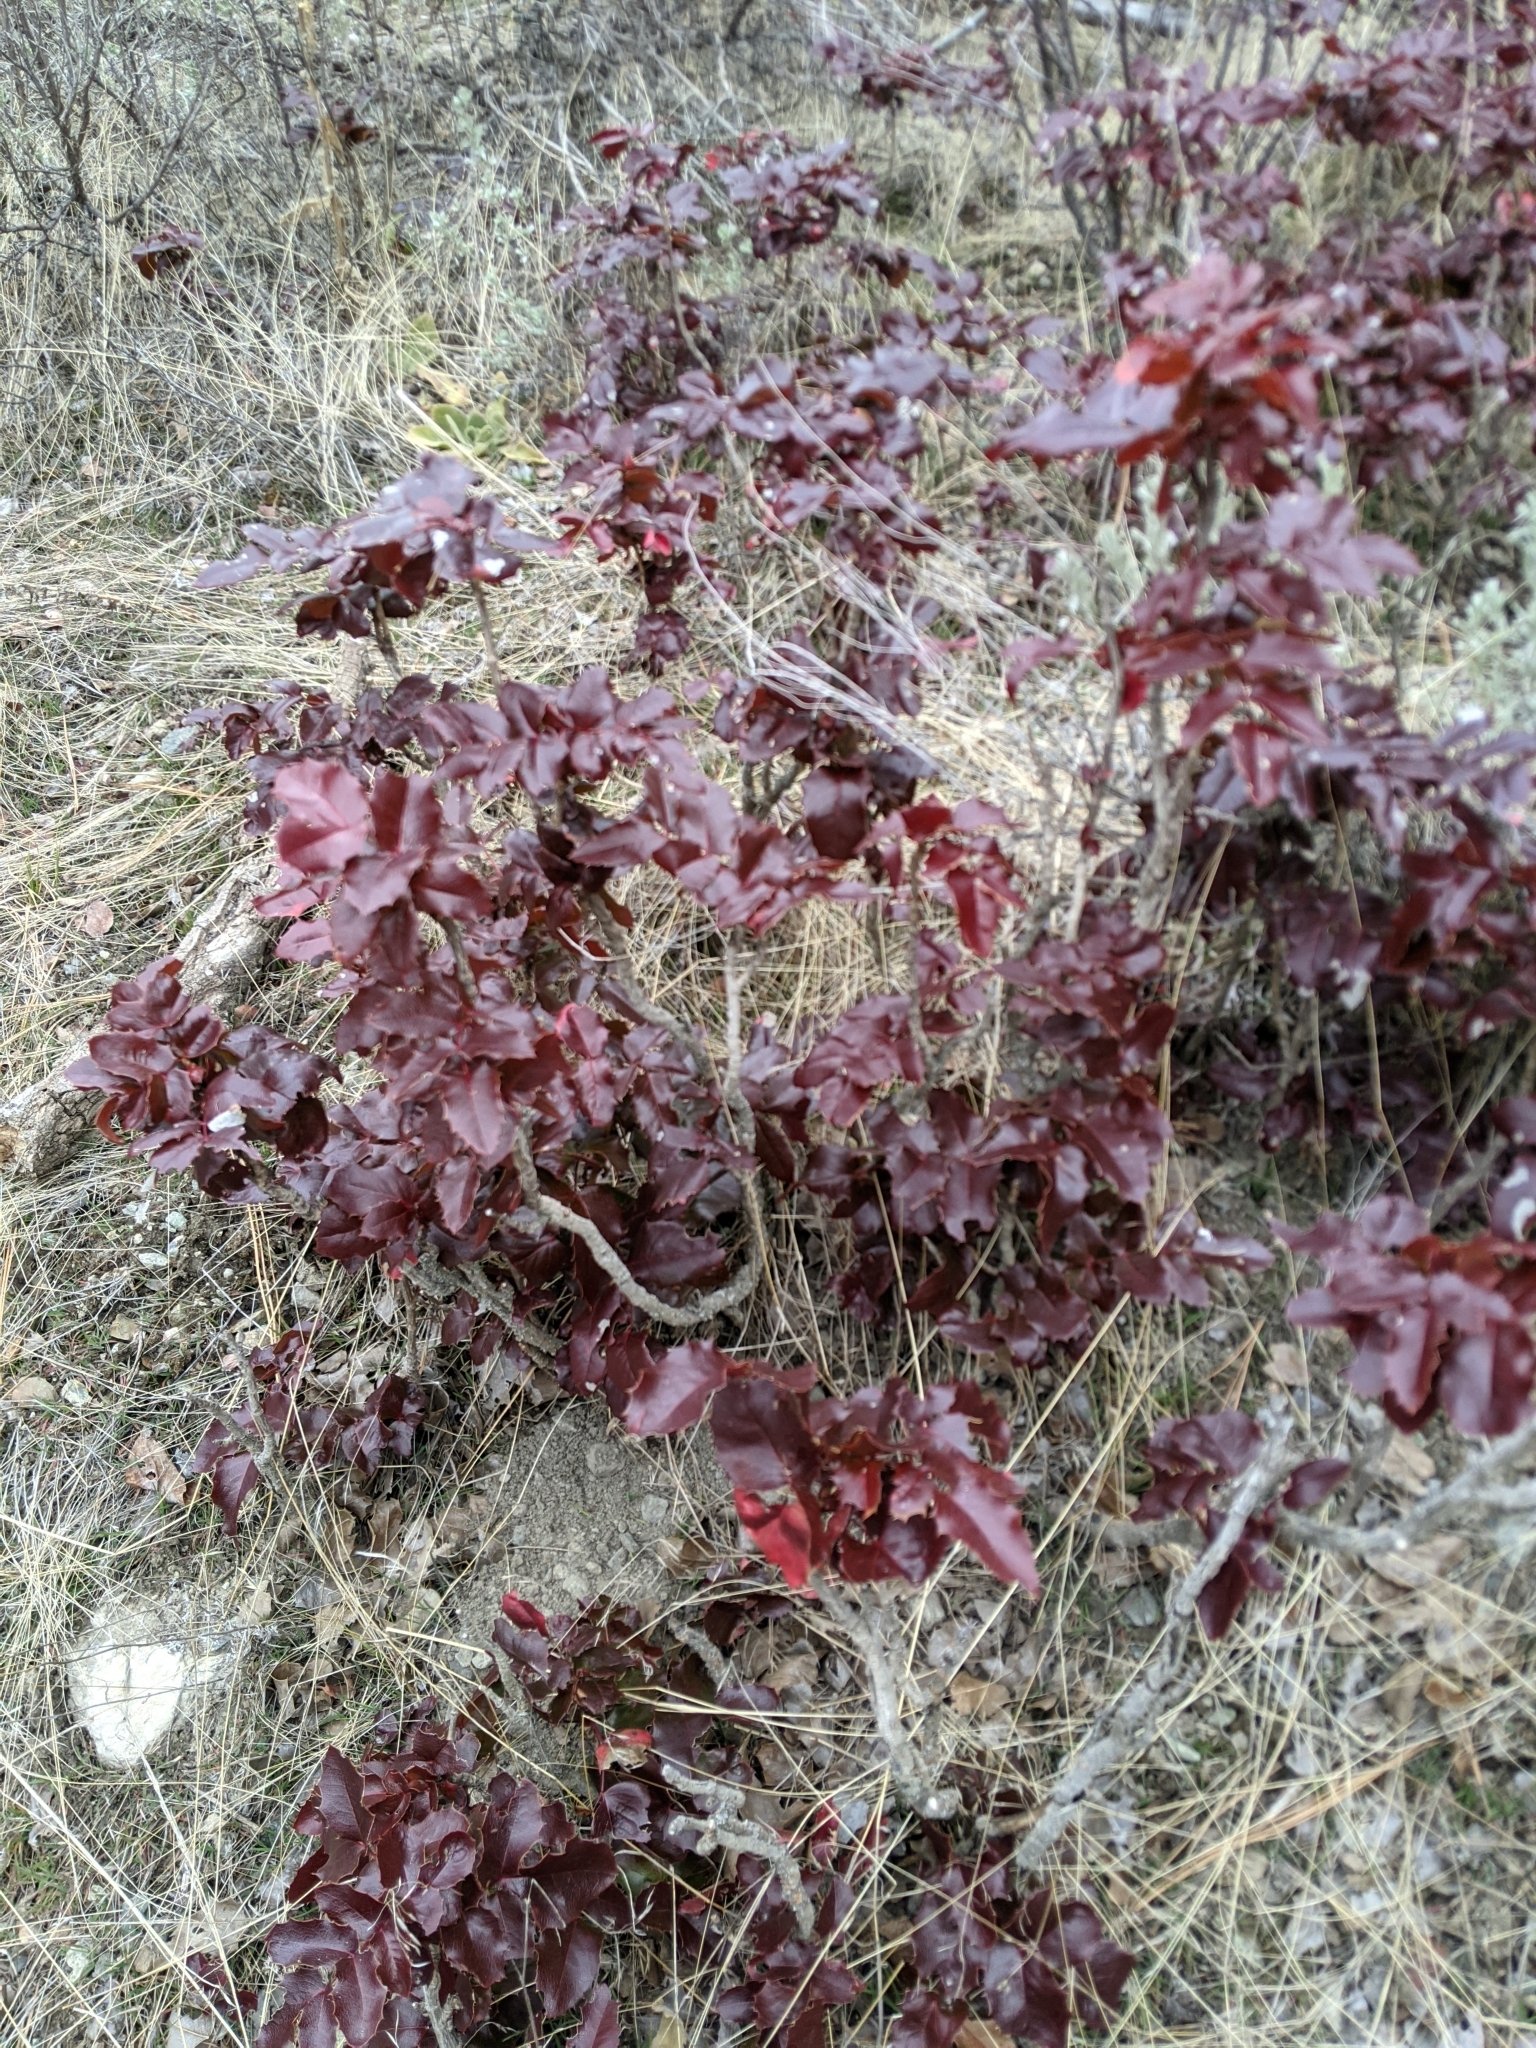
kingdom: Plantae
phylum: Tracheophyta
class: Magnoliopsida
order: Ranunculales
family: Berberidaceae
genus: Mahonia
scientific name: Mahonia aquifolium
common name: Oregon-grape
